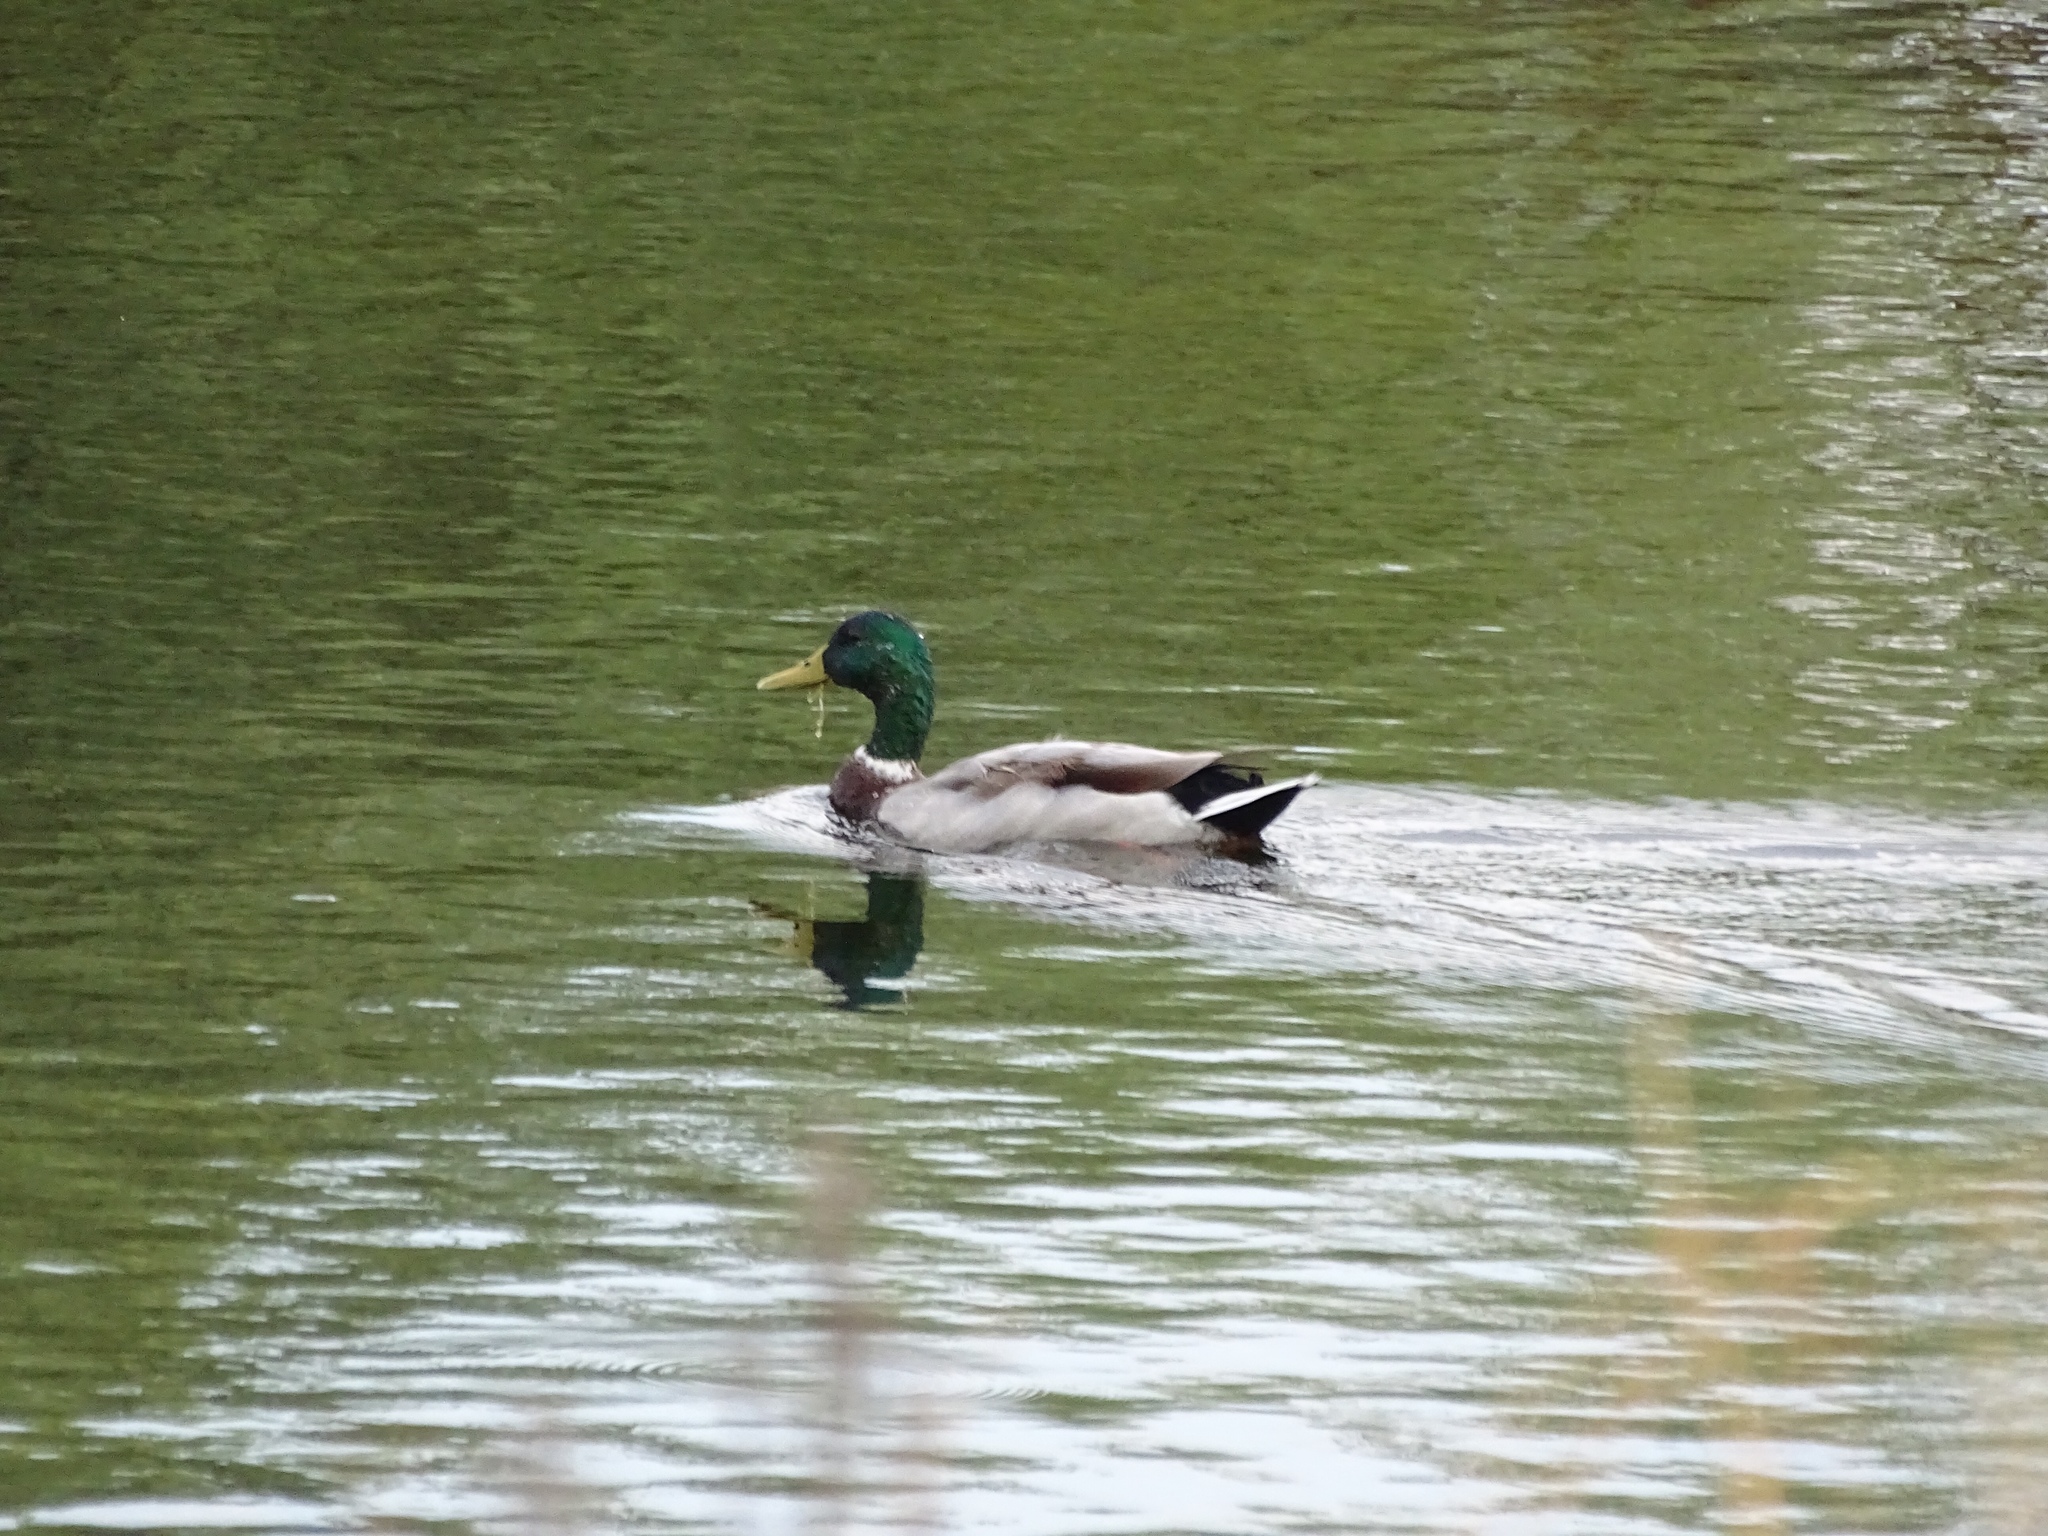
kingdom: Animalia
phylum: Chordata
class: Aves
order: Anseriformes
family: Anatidae
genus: Anas
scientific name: Anas platyrhynchos
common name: Mallard
